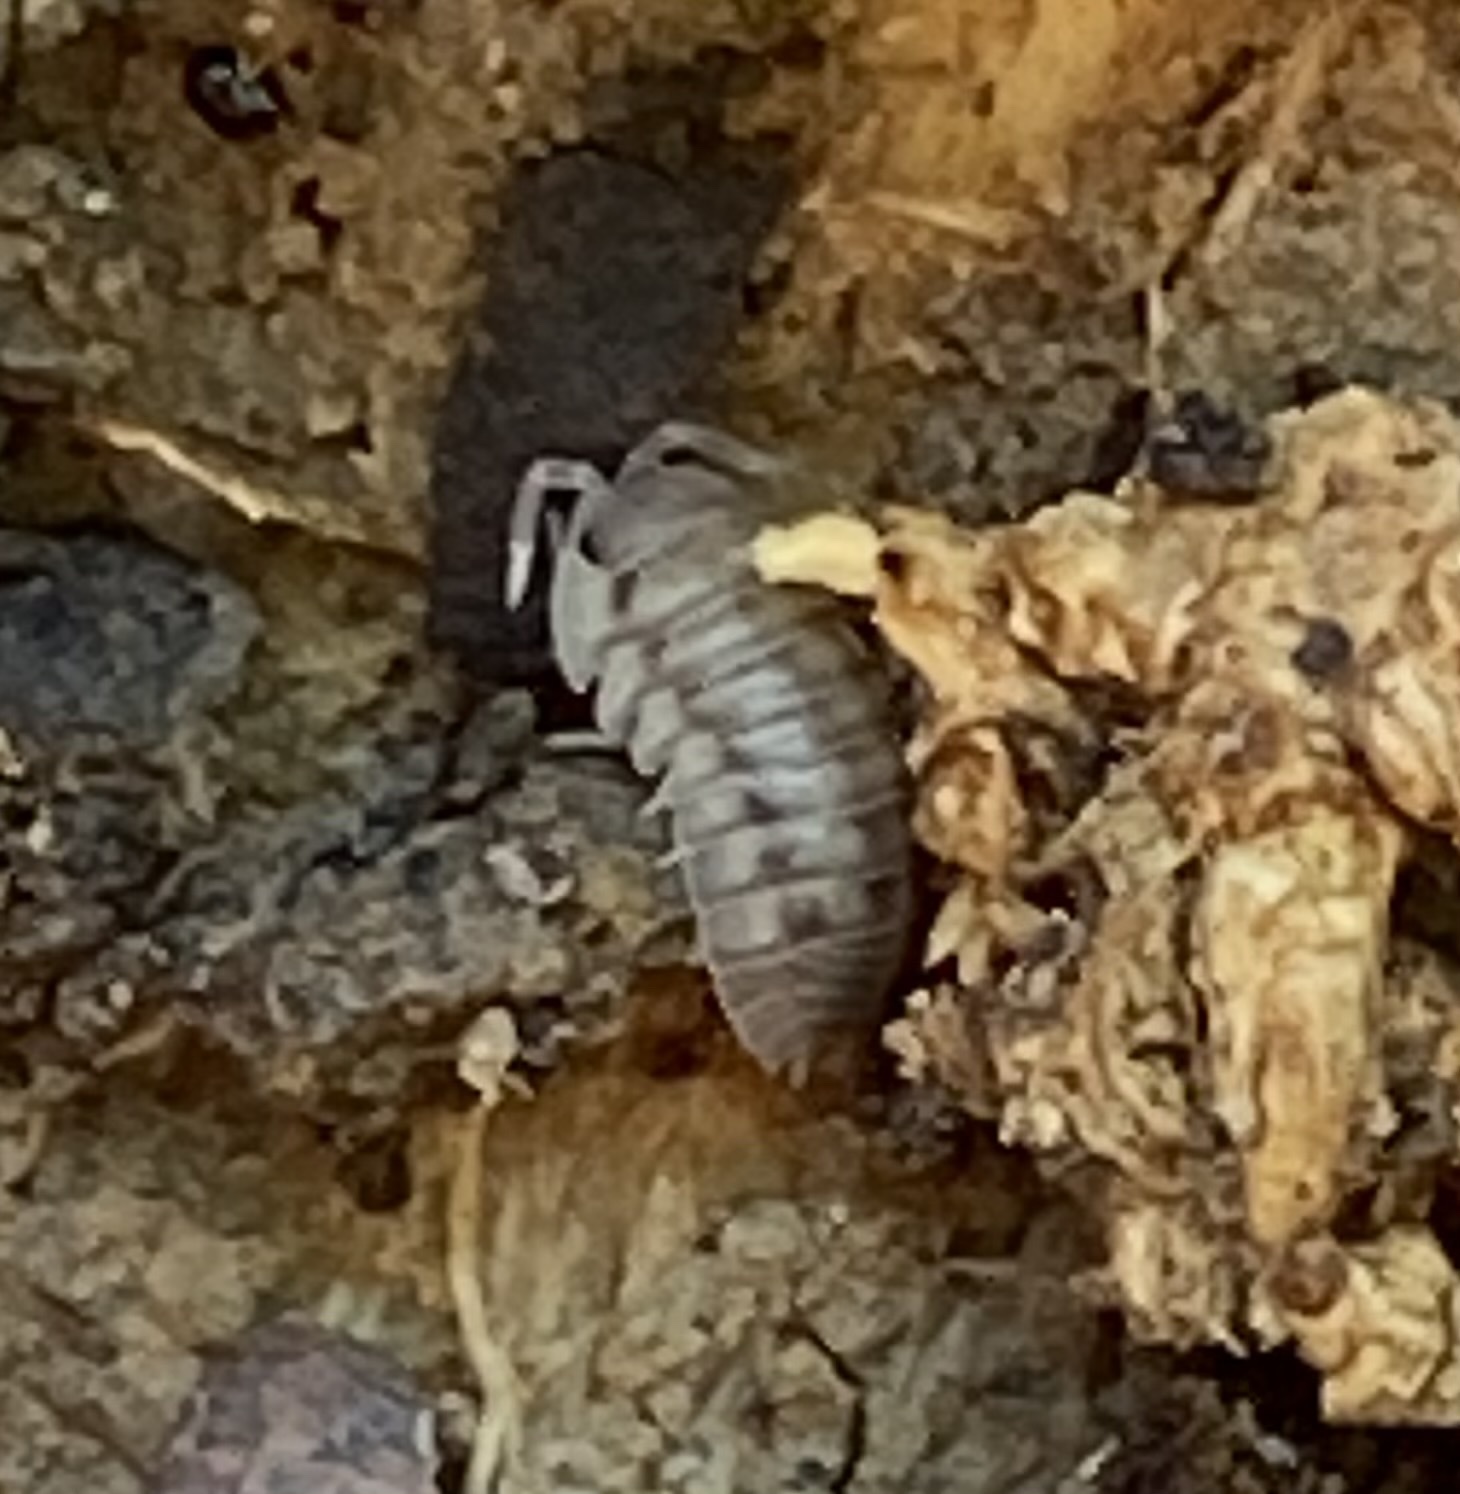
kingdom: Animalia
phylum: Arthropoda
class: Malacostraca
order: Isopoda
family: Armadillidiidae
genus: Armadillidium
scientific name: Armadillidium nasatum
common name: Isopod
